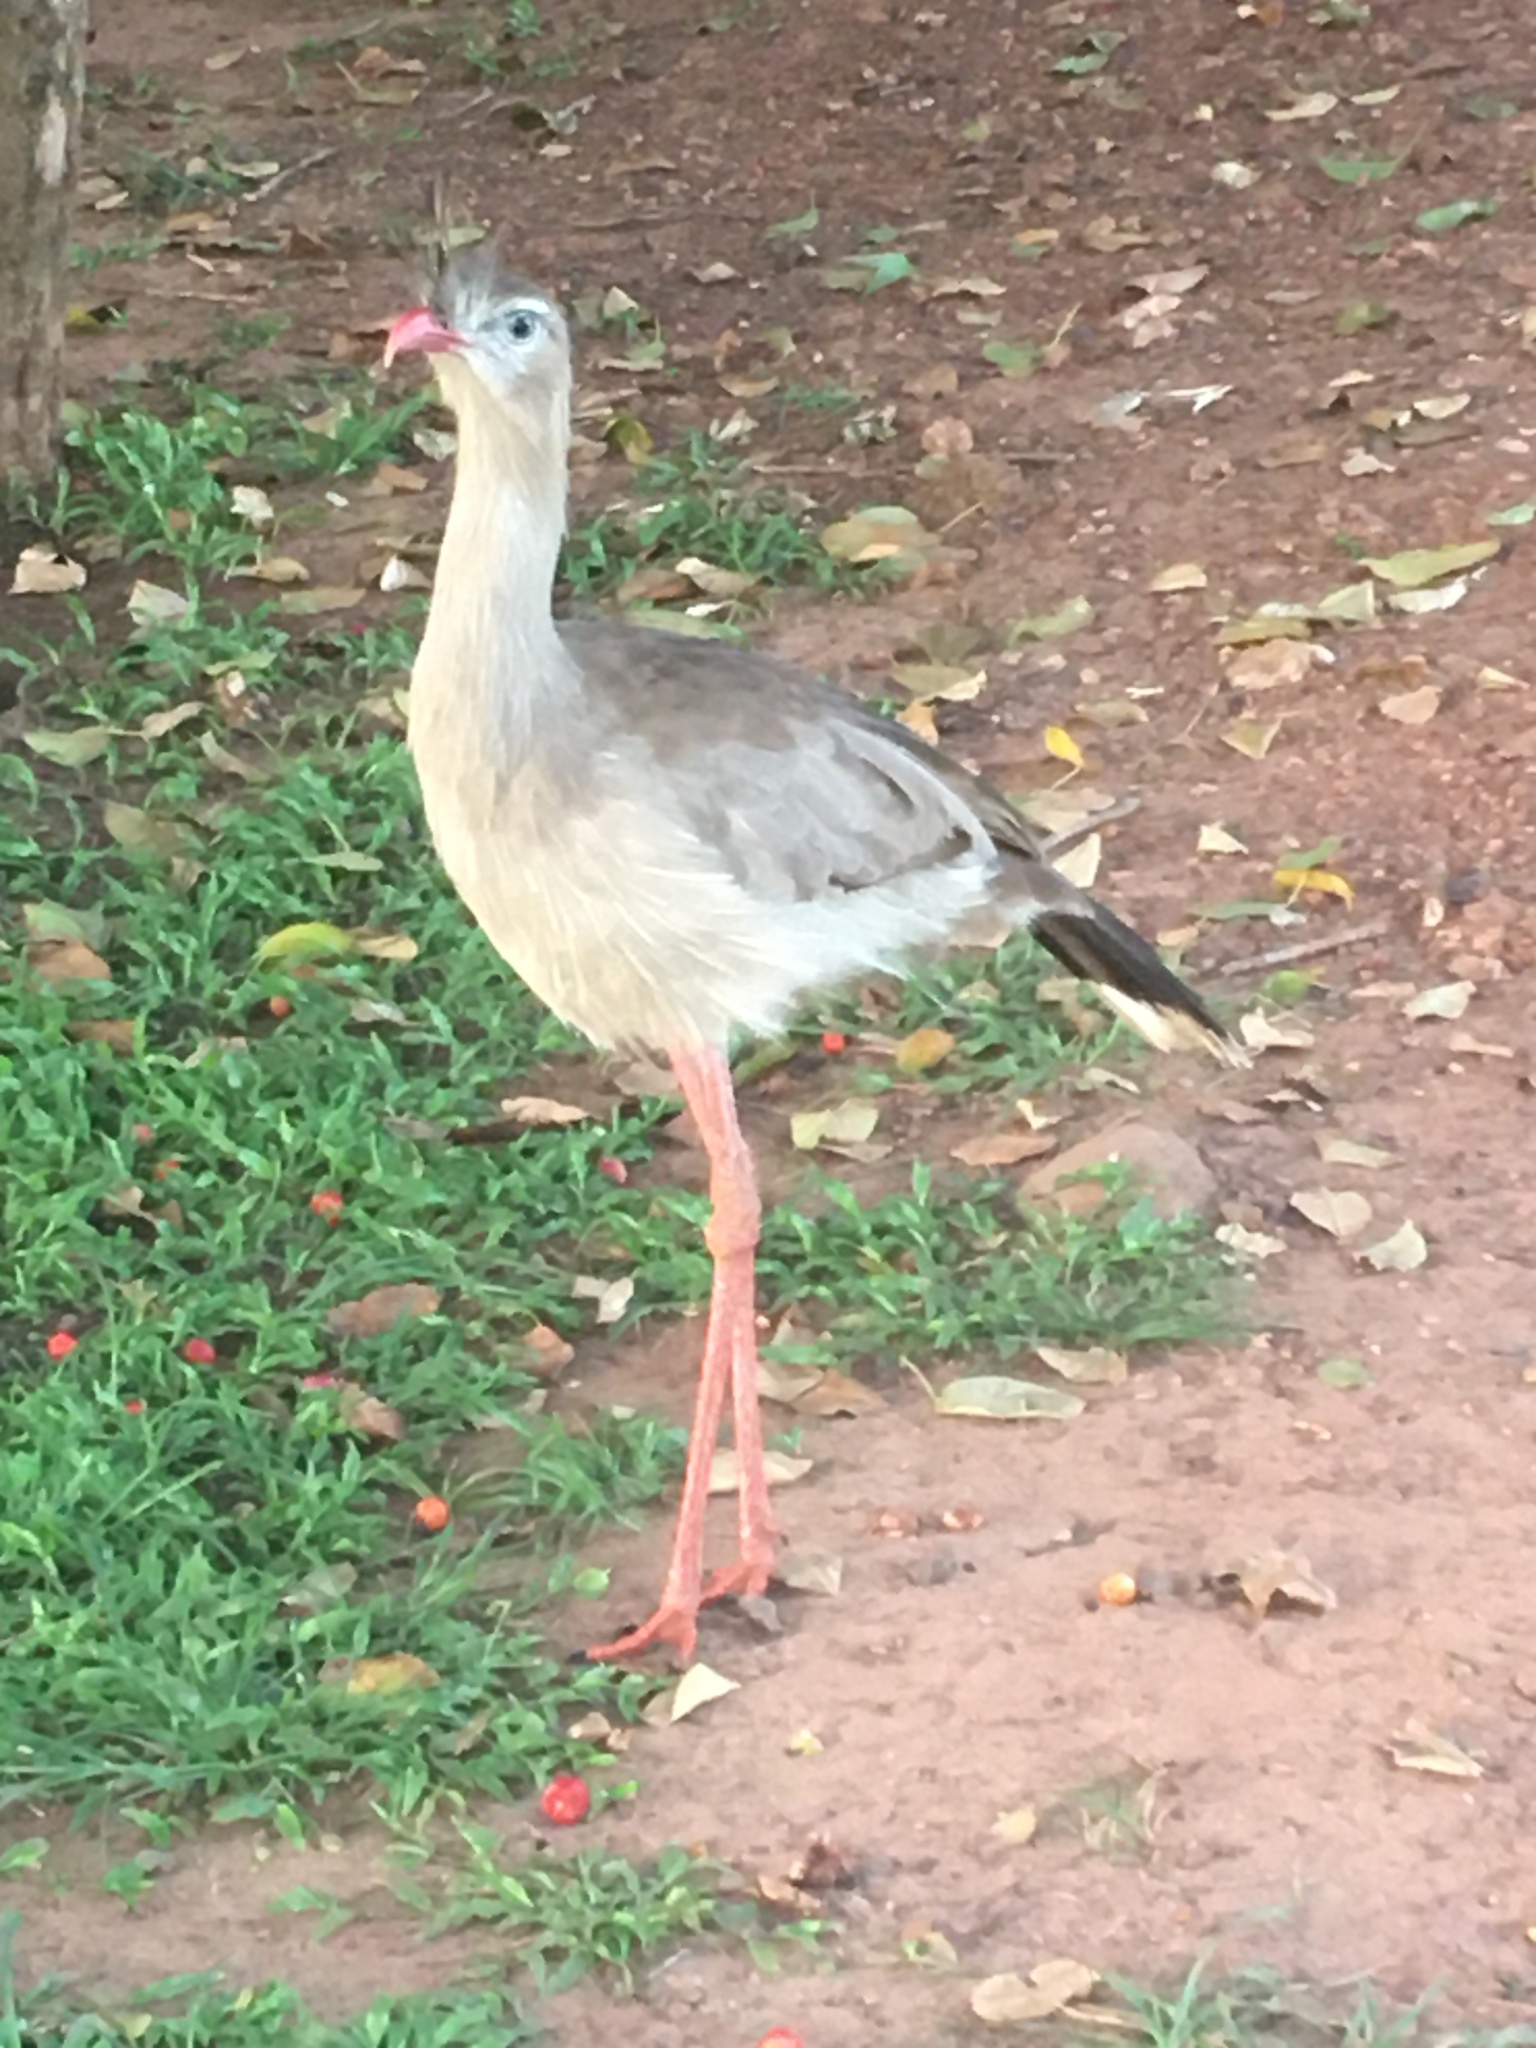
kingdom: Animalia
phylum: Chordata
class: Aves
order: Cariamiformes
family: Cariamidae
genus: Cariama
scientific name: Cariama cristata
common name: Red-legged seriema
